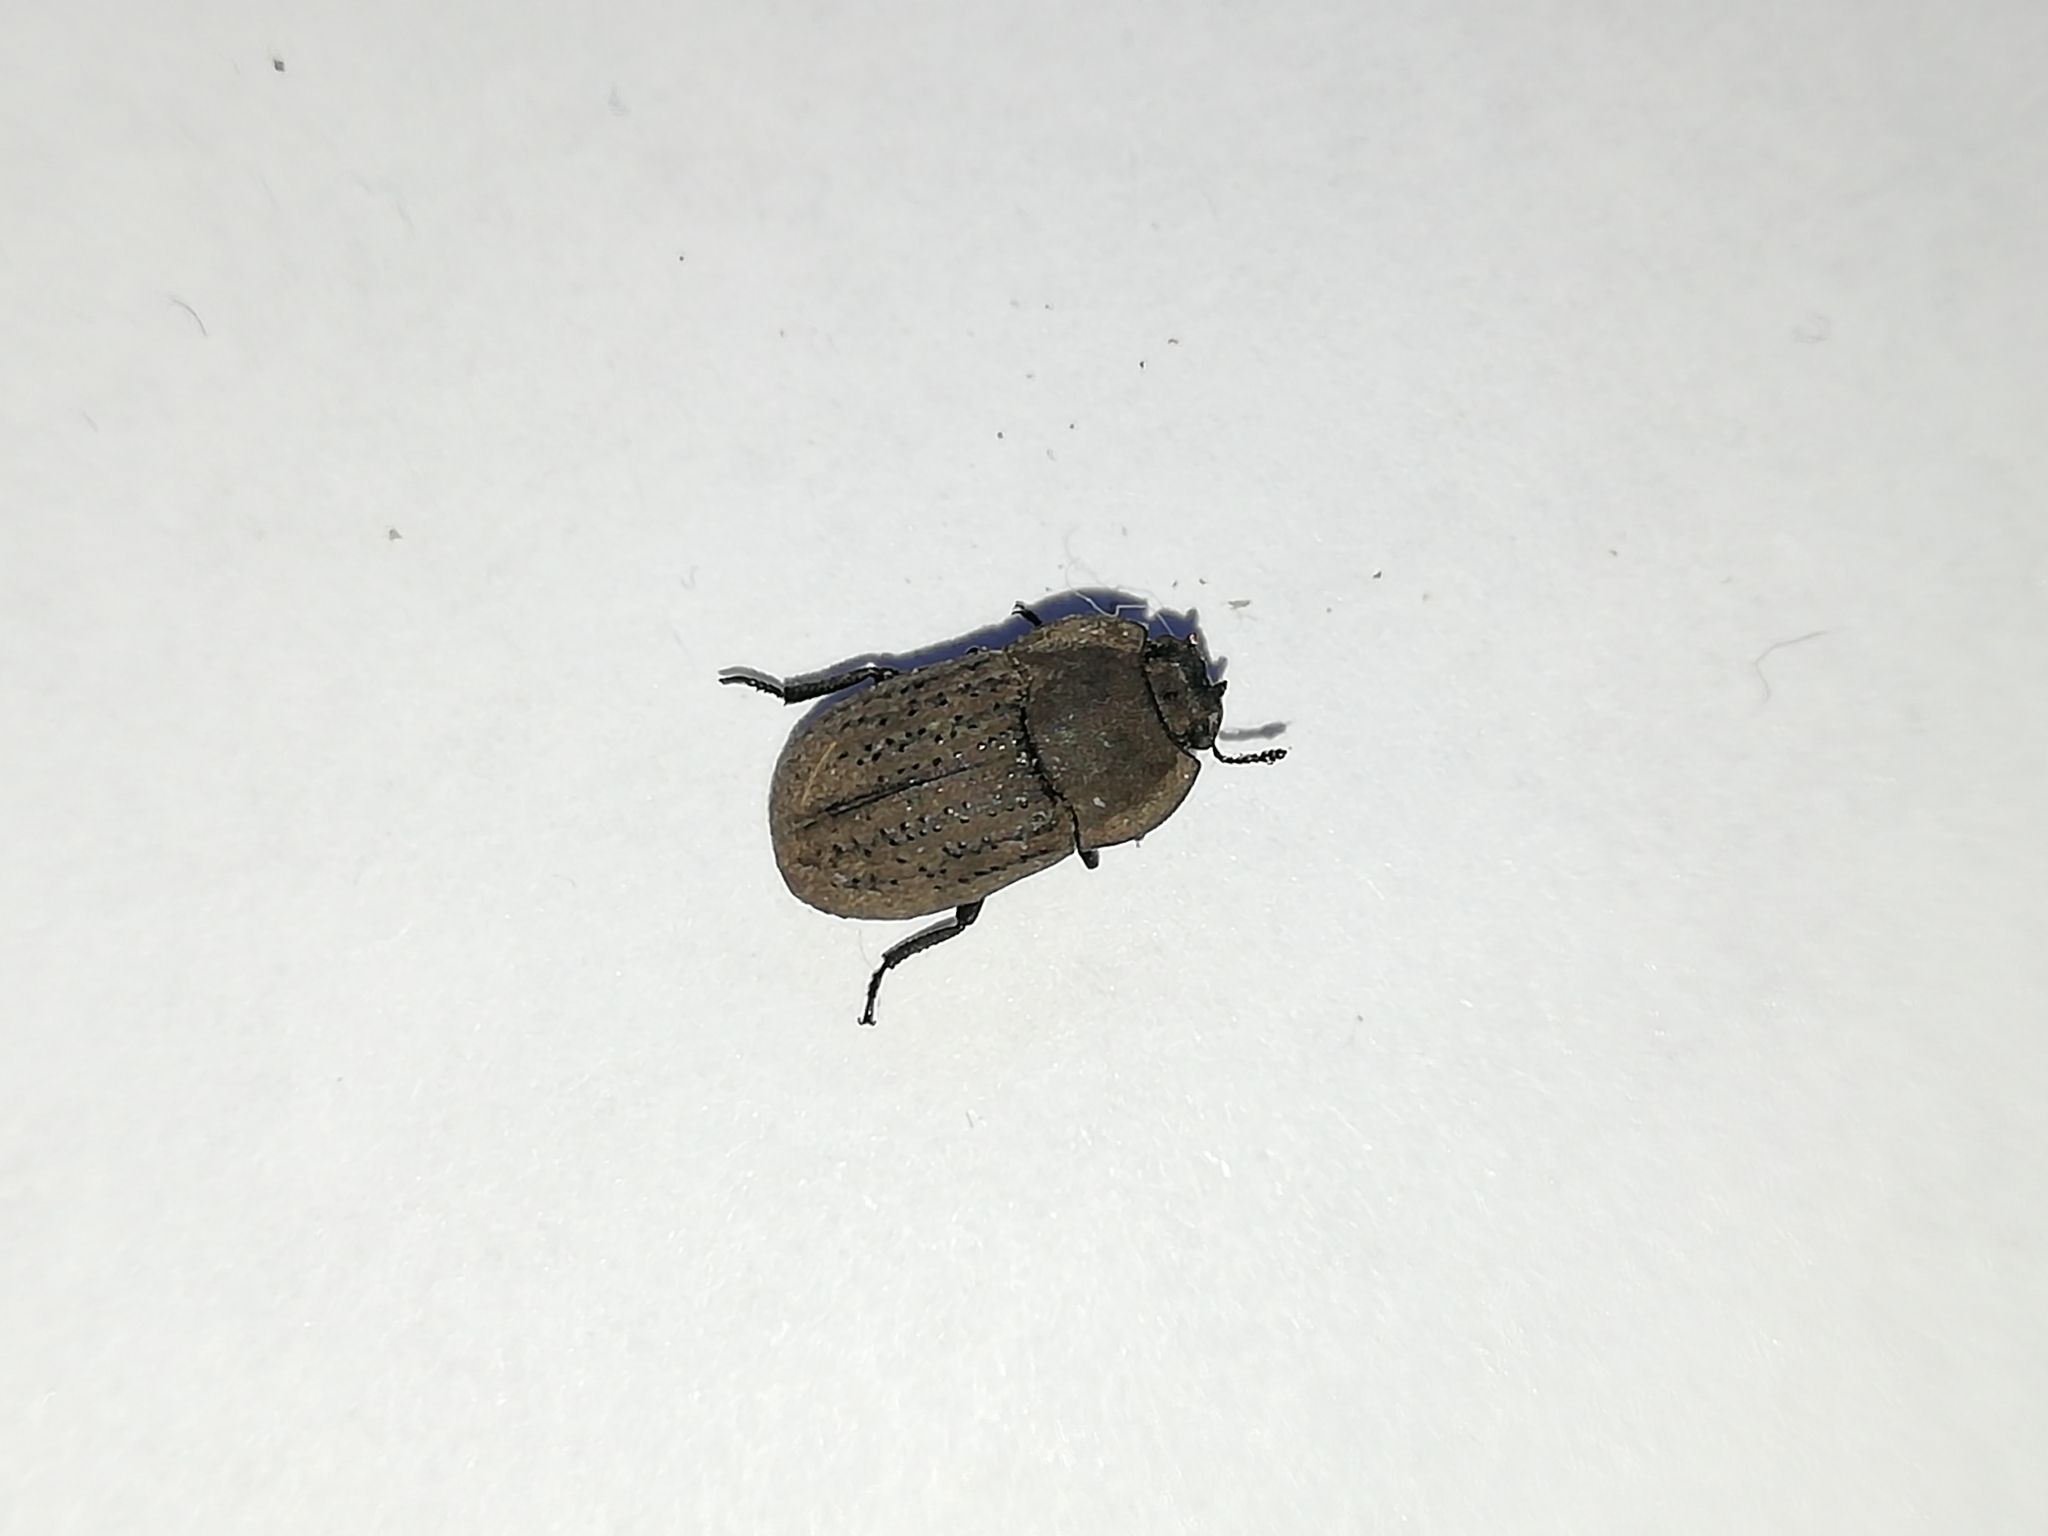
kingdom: Animalia
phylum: Arthropoda
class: Insecta
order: Coleoptera
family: Tenebrionidae
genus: Opatrum
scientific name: Opatrum sabulosum
